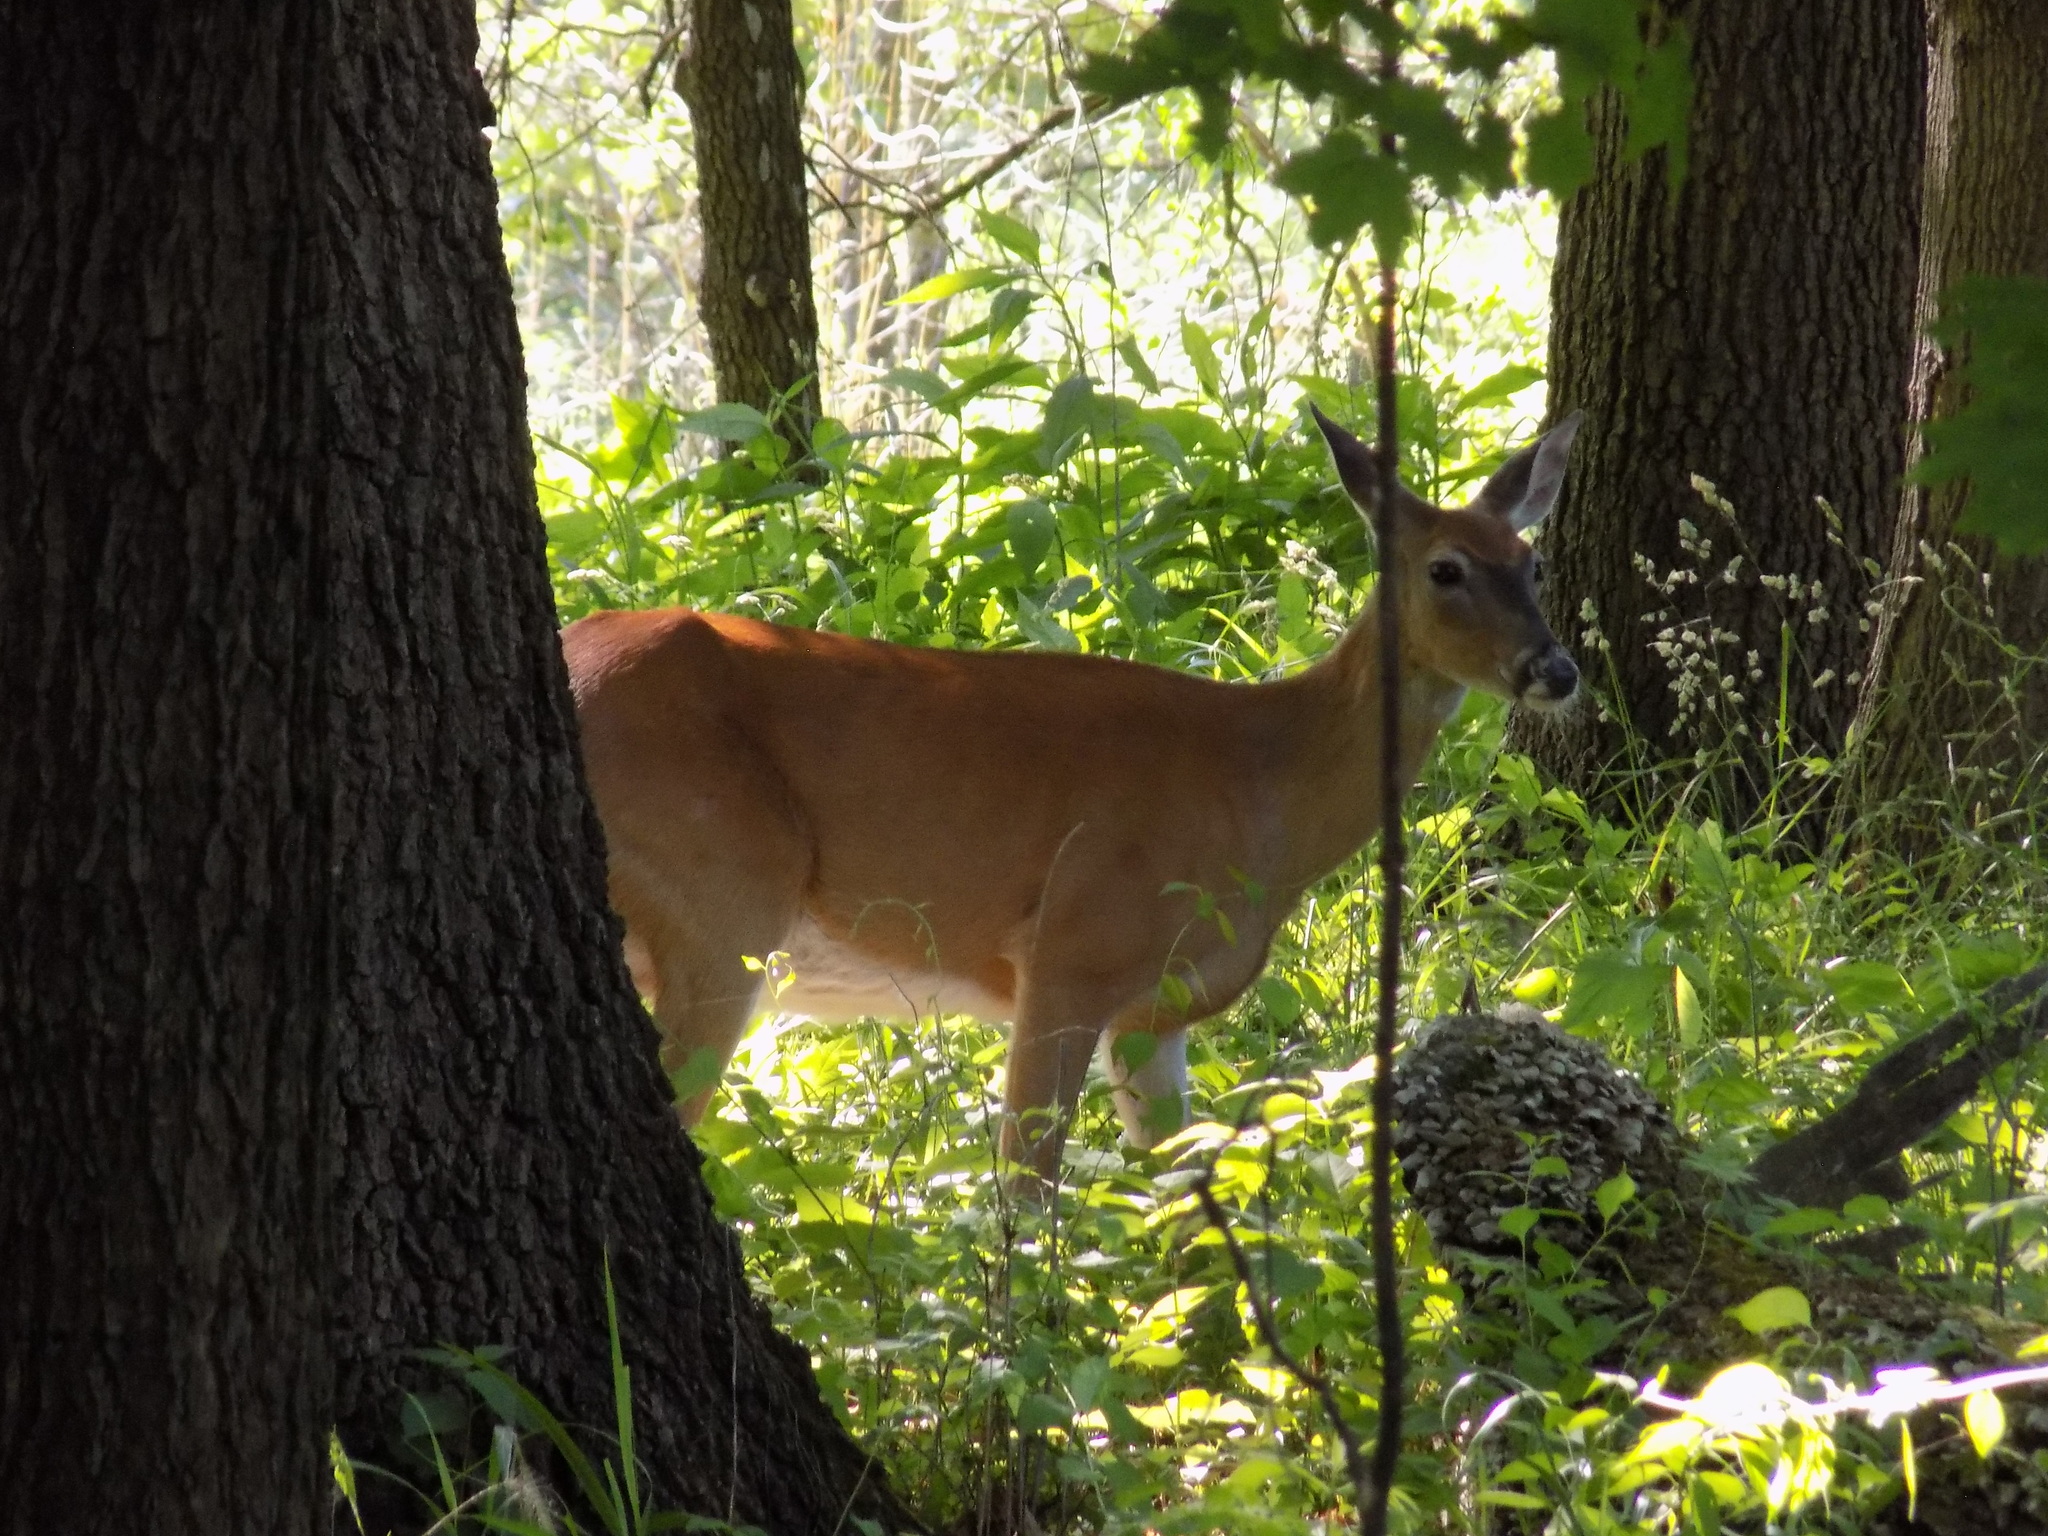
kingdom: Animalia
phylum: Chordata
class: Mammalia
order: Artiodactyla
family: Cervidae
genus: Odocoileus
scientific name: Odocoileus virginianus
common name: White-tailed deer
